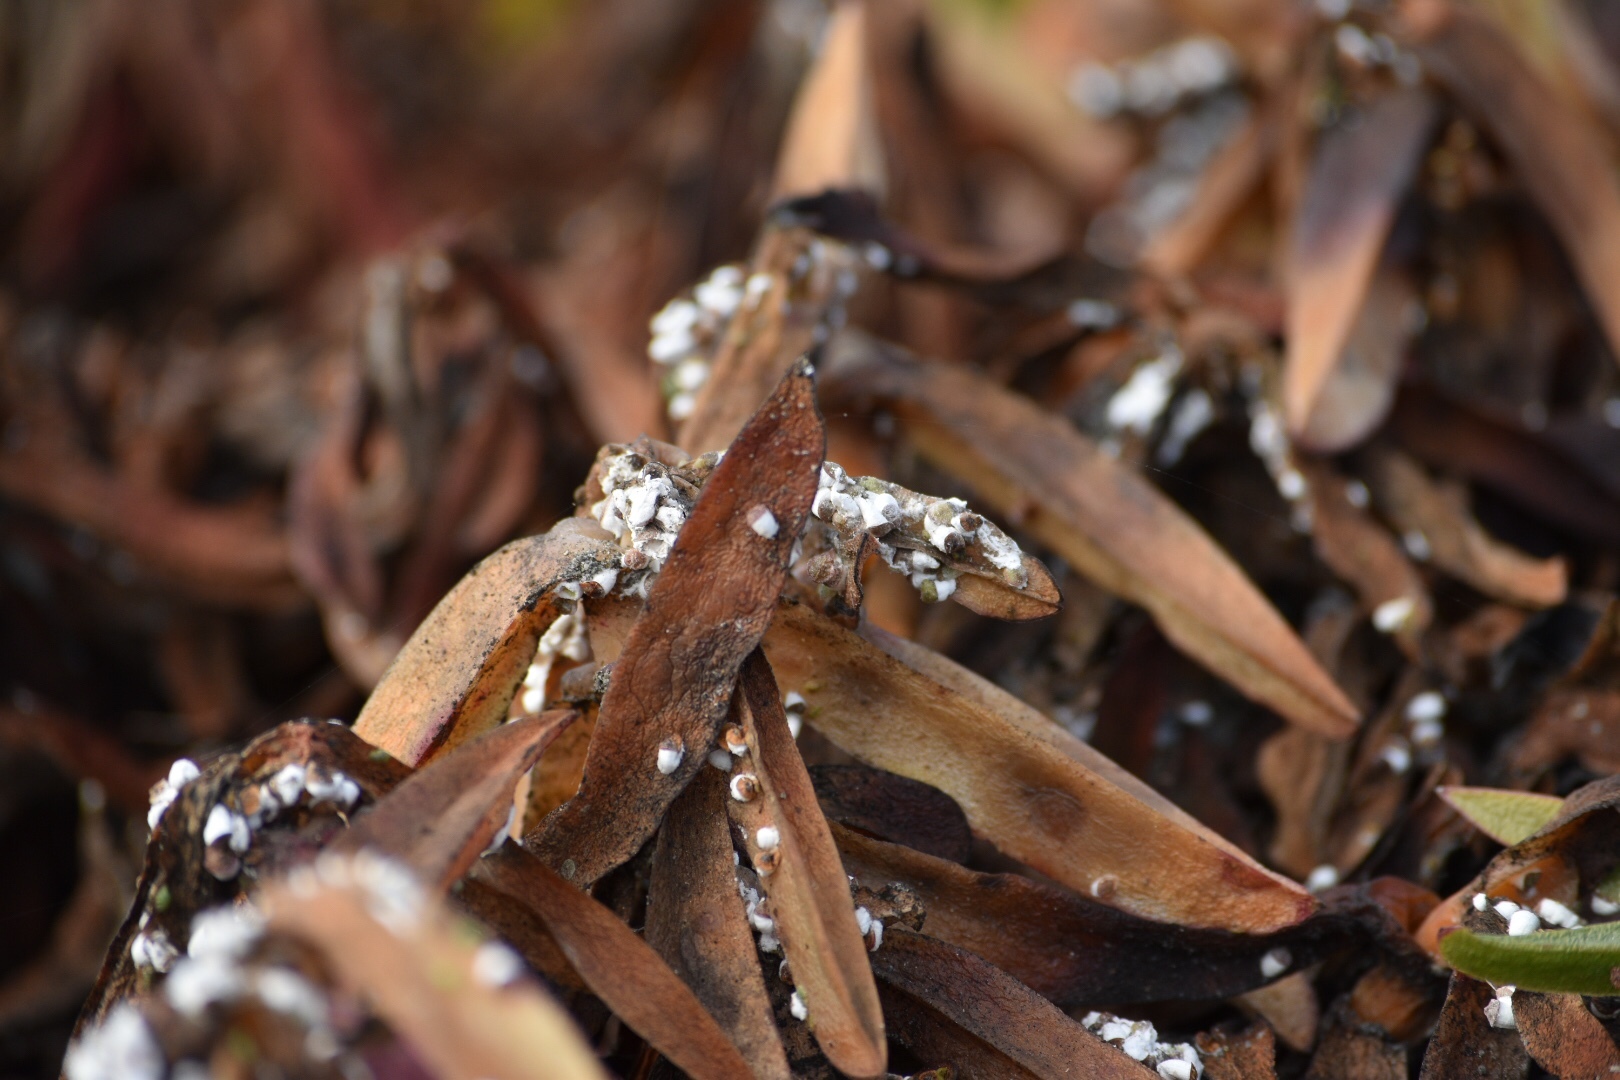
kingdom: Animalia
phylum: Arthropoda
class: Insecta
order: Hemiptera
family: Coccidae
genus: Pulvinariella
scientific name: Pulvinariella mesembryanthemi
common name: Cottony pigface scale
